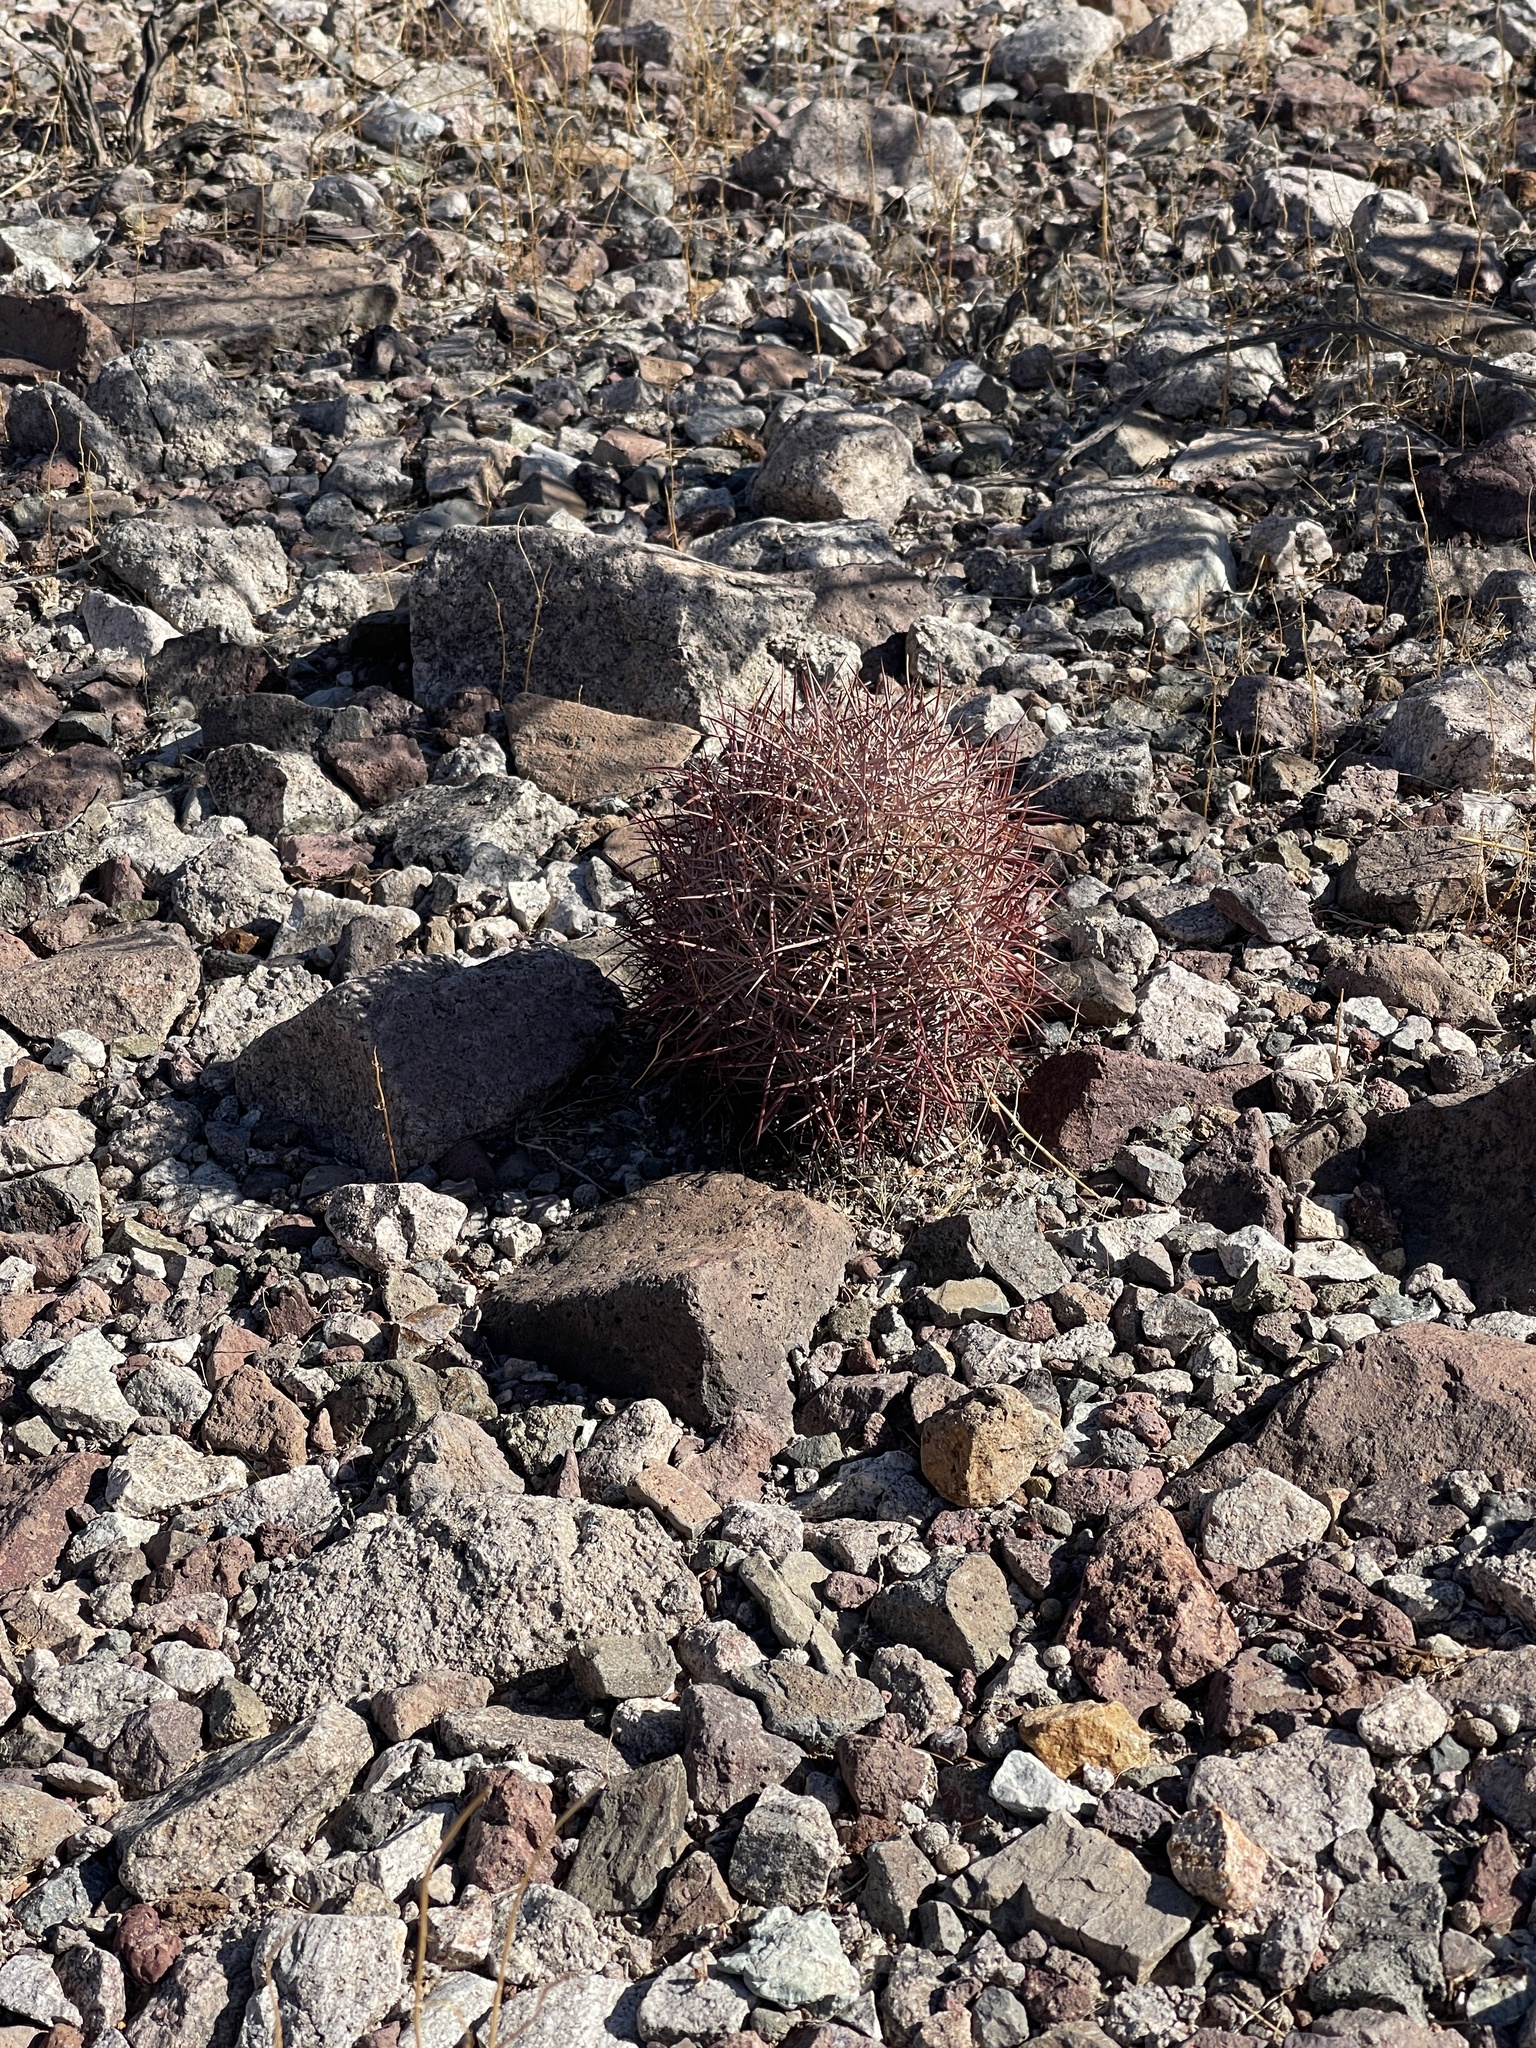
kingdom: Plantae
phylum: Tracheophyta
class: Magnoliopsida
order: Caryophyllales
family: Cactaceae
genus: Sclerocactus
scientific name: Sclerocactus johnsonii
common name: Eight-spine fishhook cactus
